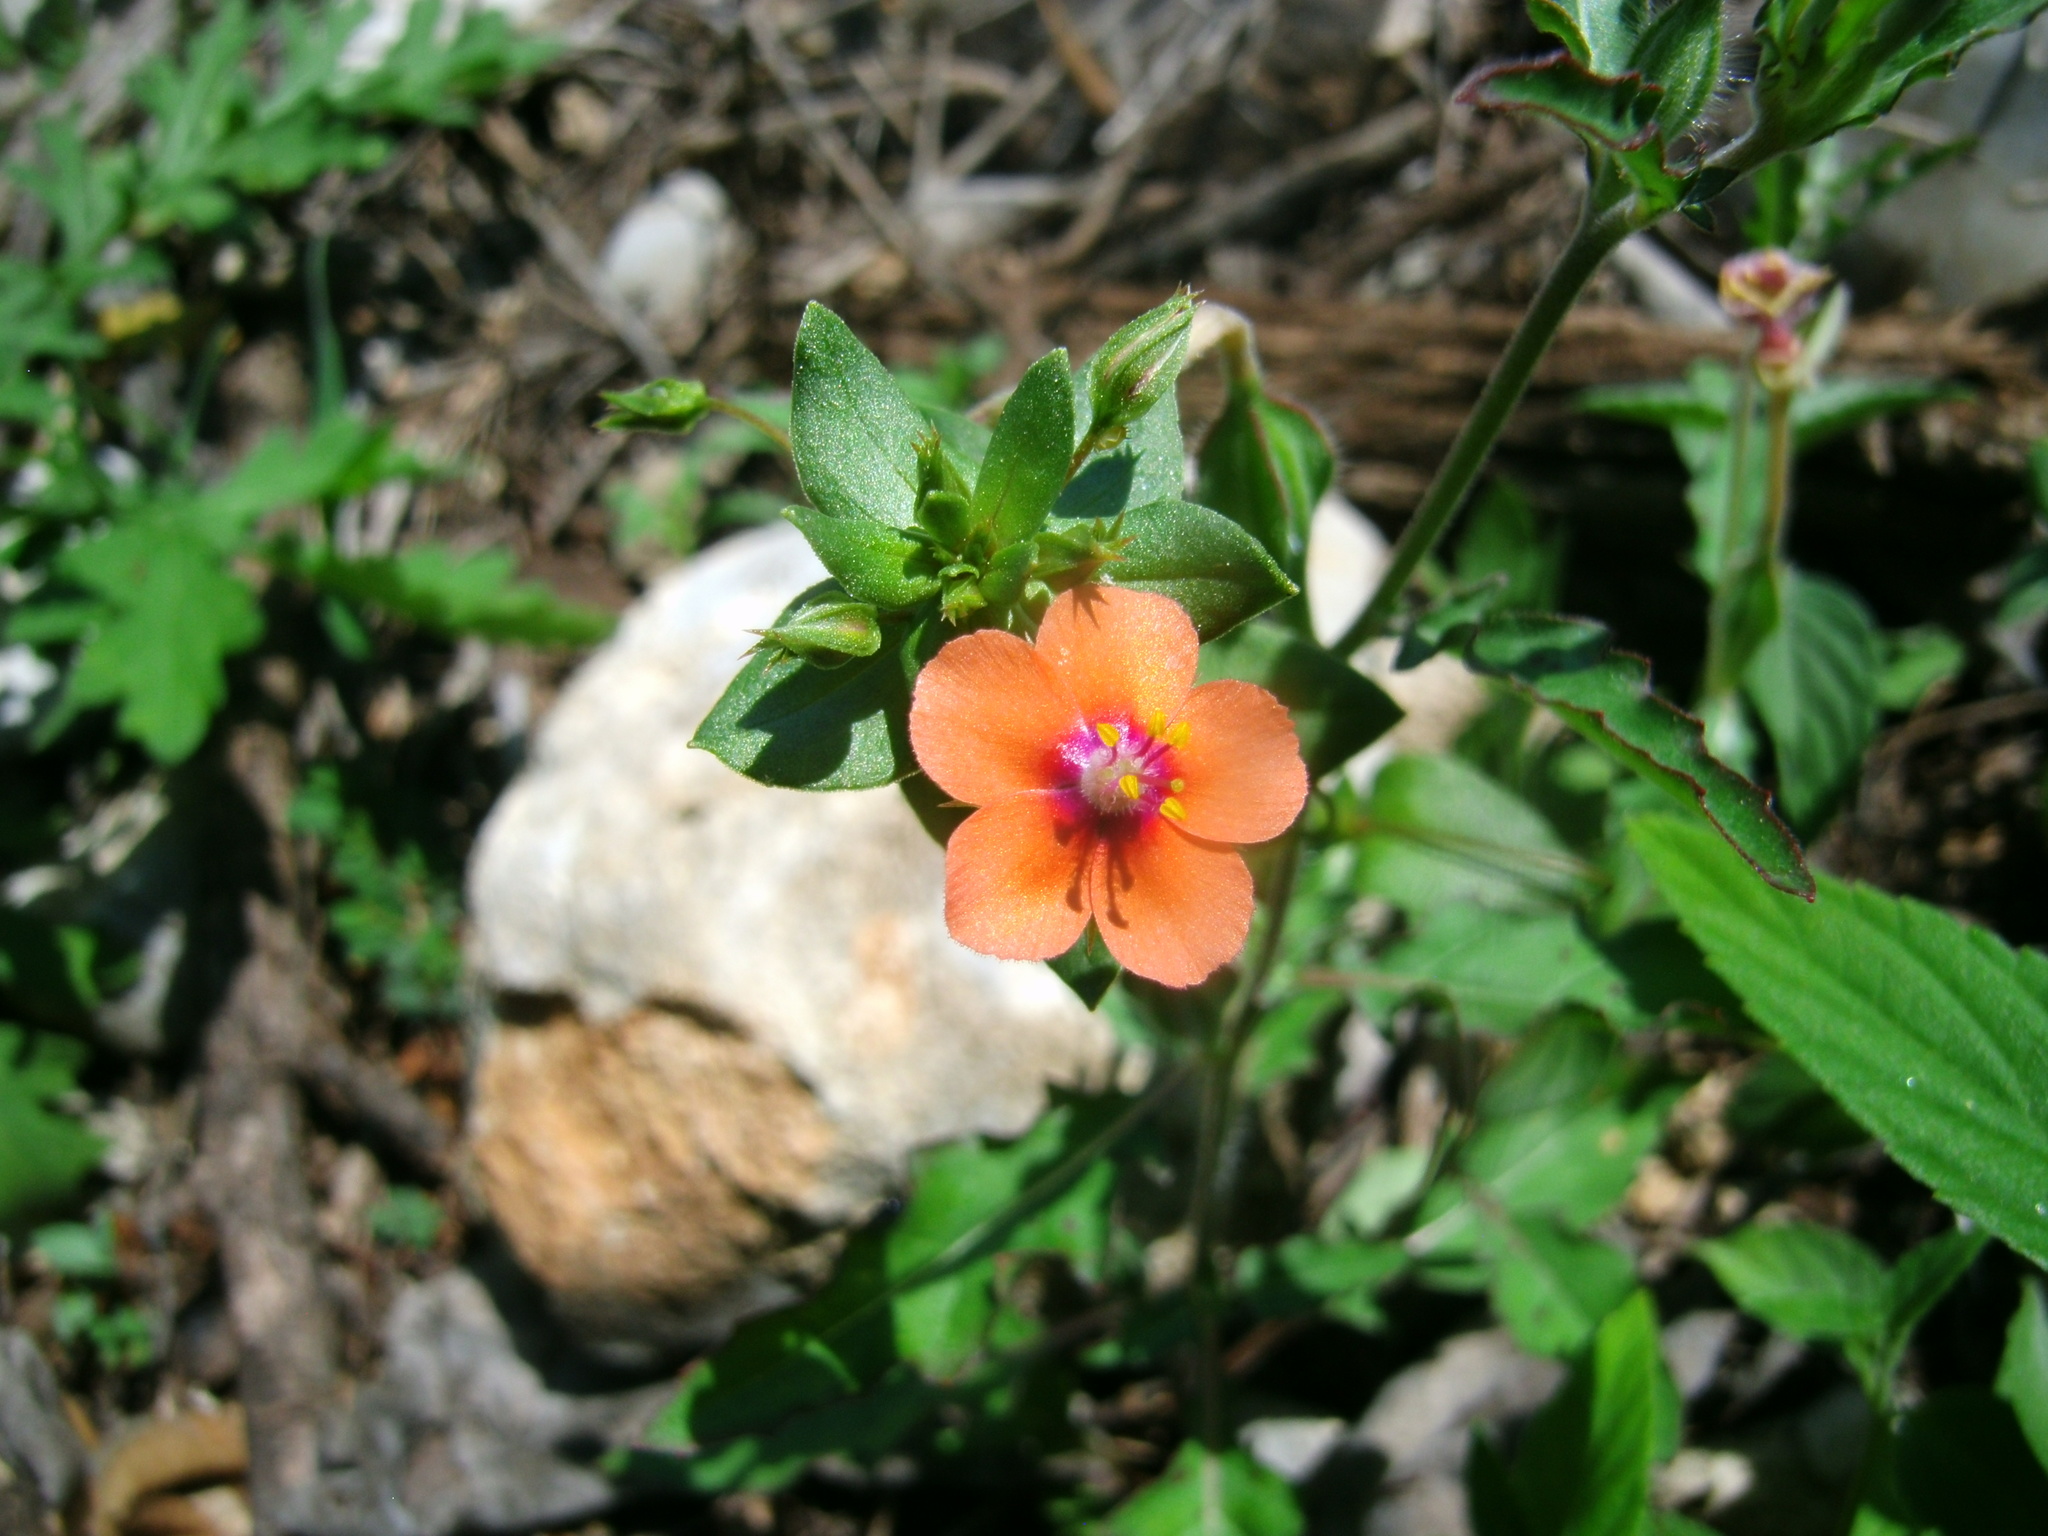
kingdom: Plantae
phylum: Tracheophyta
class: Magnoliopsida
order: Ericales
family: Primulaceae
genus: Lysimachia
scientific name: Lysimachia arvensis
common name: Scarlet pimpernel
